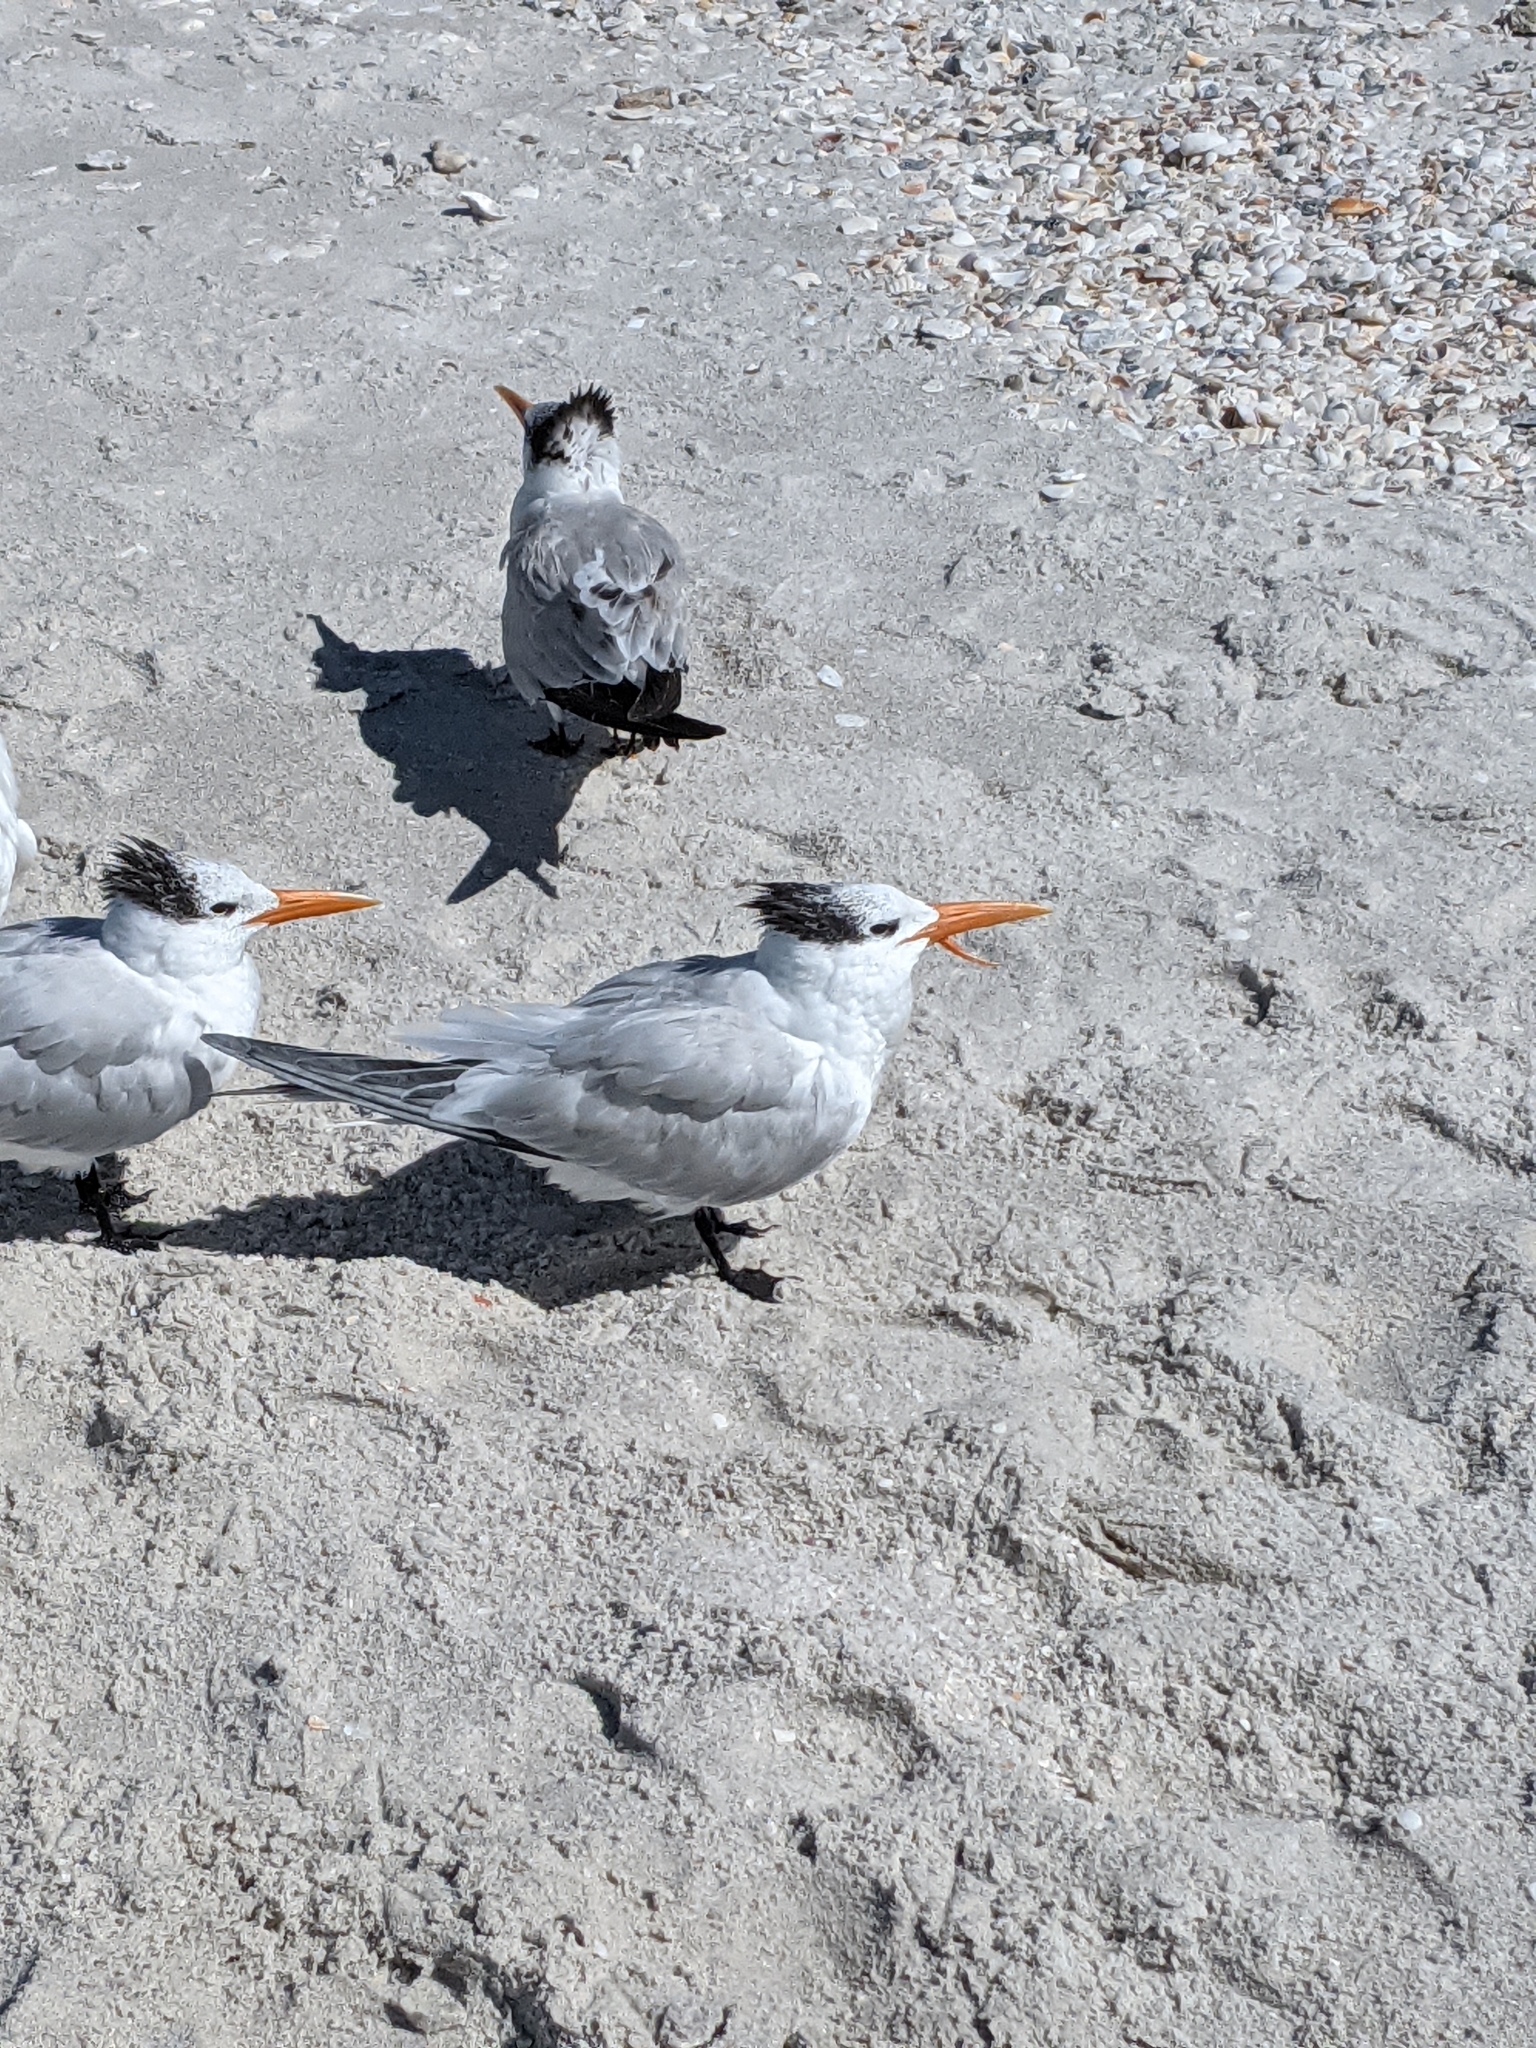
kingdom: Animalia
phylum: Chordata
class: Aves
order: Charadriiformes
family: Laridae
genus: Thalasseus
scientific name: Thalasseus maximus
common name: Royal tern
